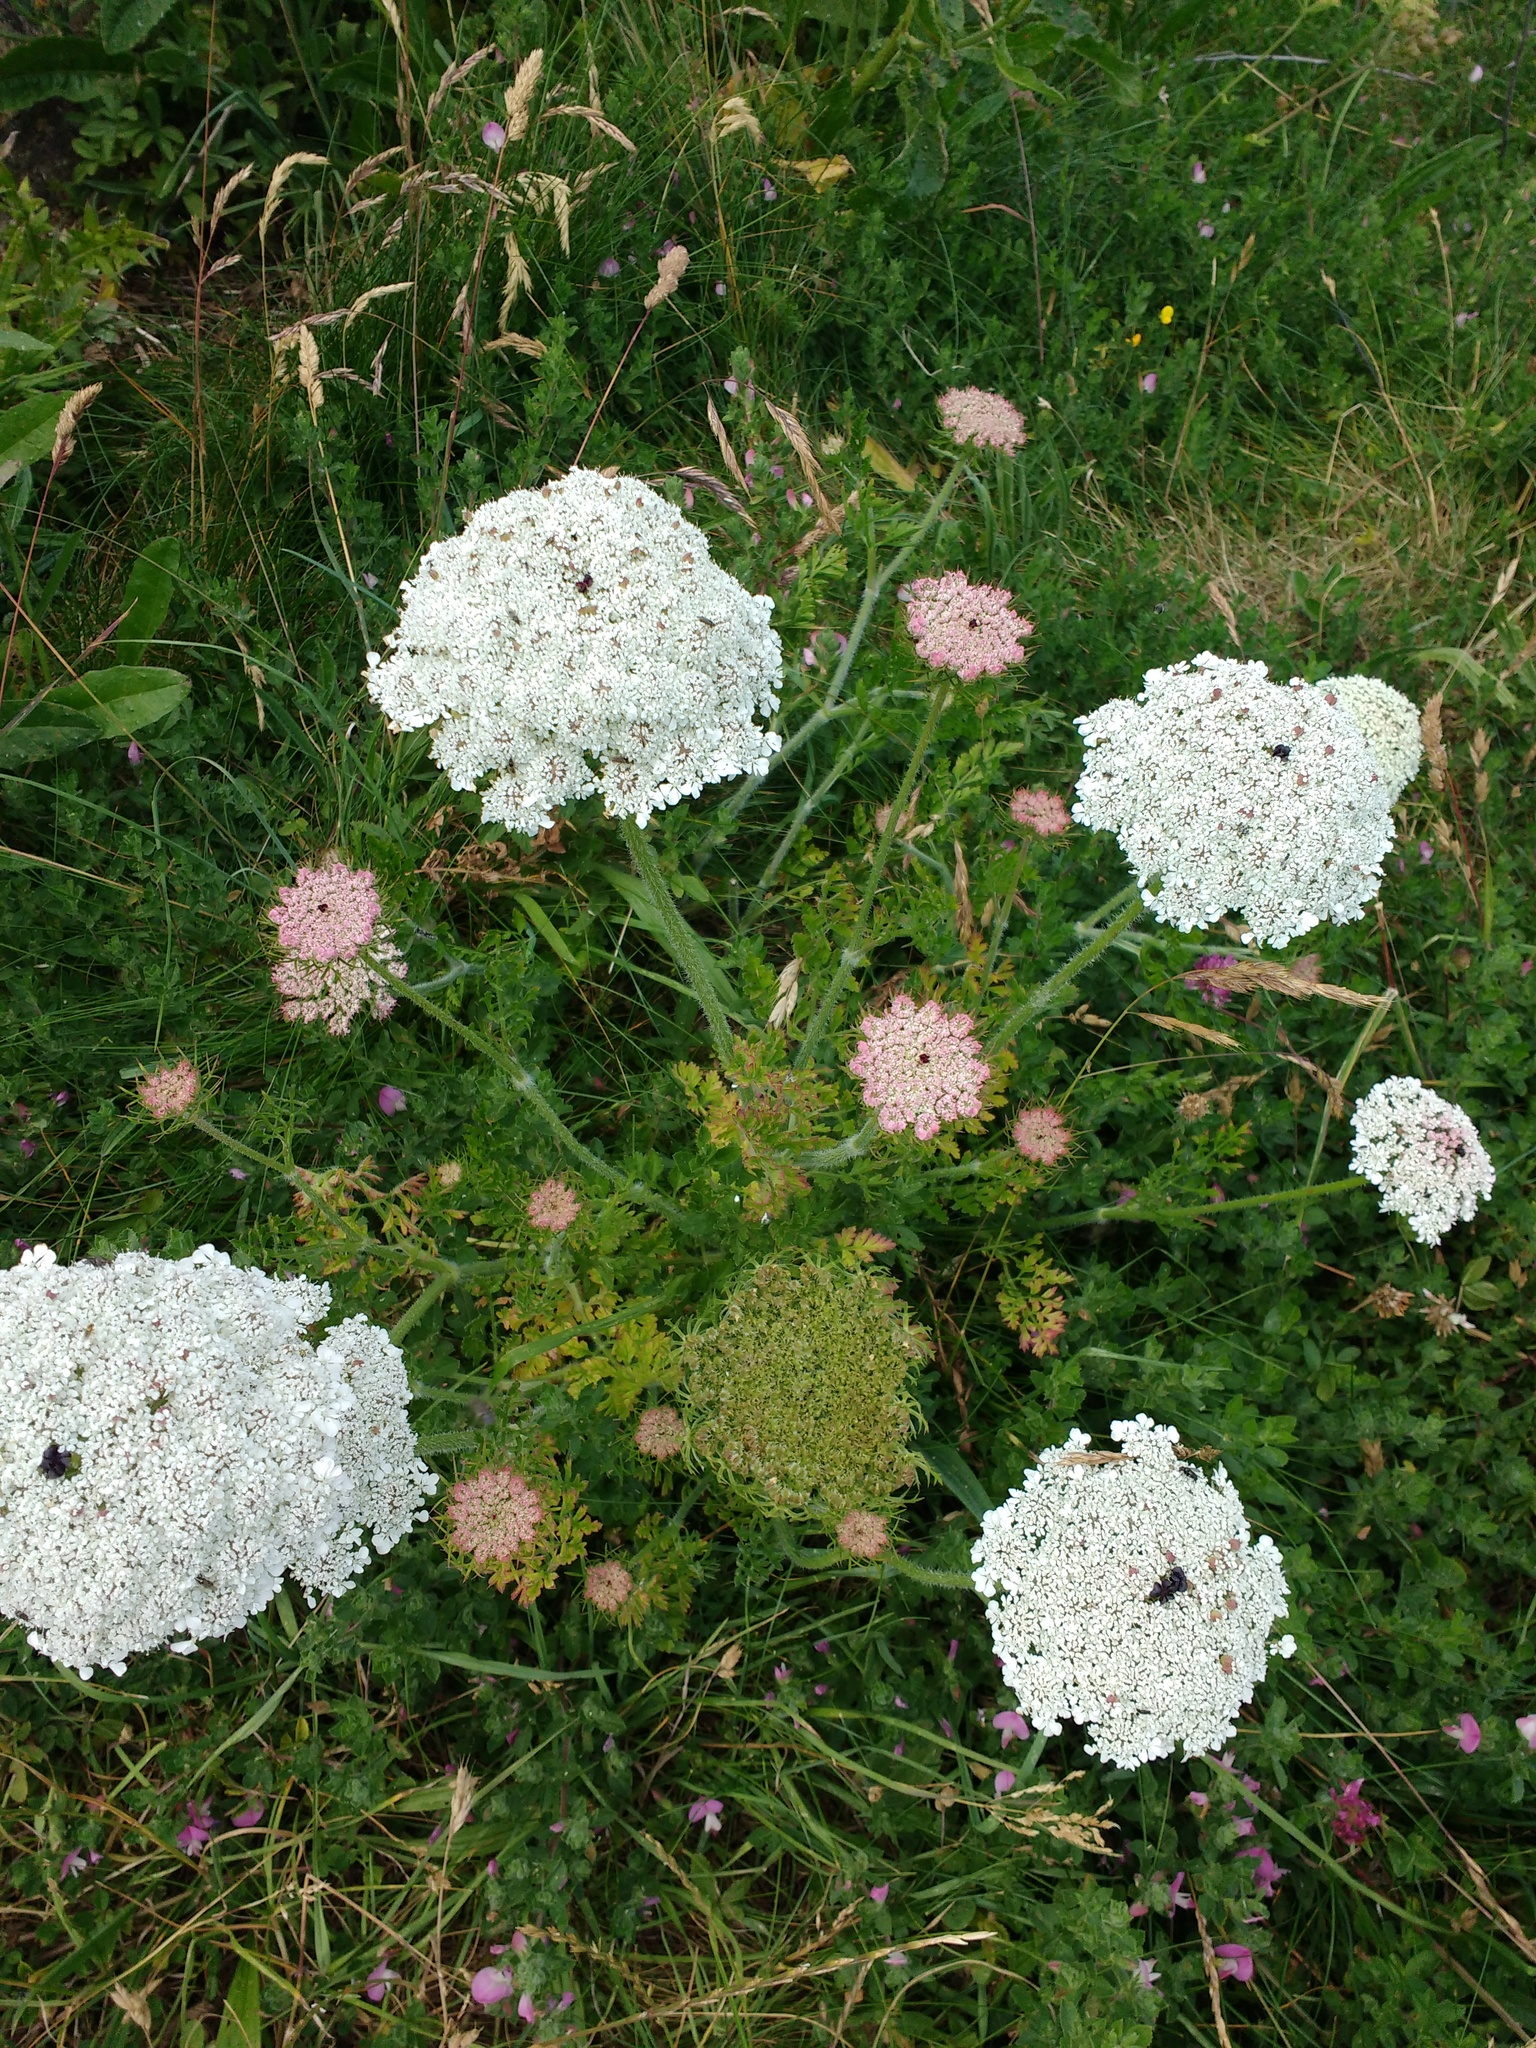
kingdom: Plantae
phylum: Tracheophyta
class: Magnoliopsida
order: Apiales
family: Apiaceae
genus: Daucus
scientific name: Daucus carota
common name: Wild carrot
